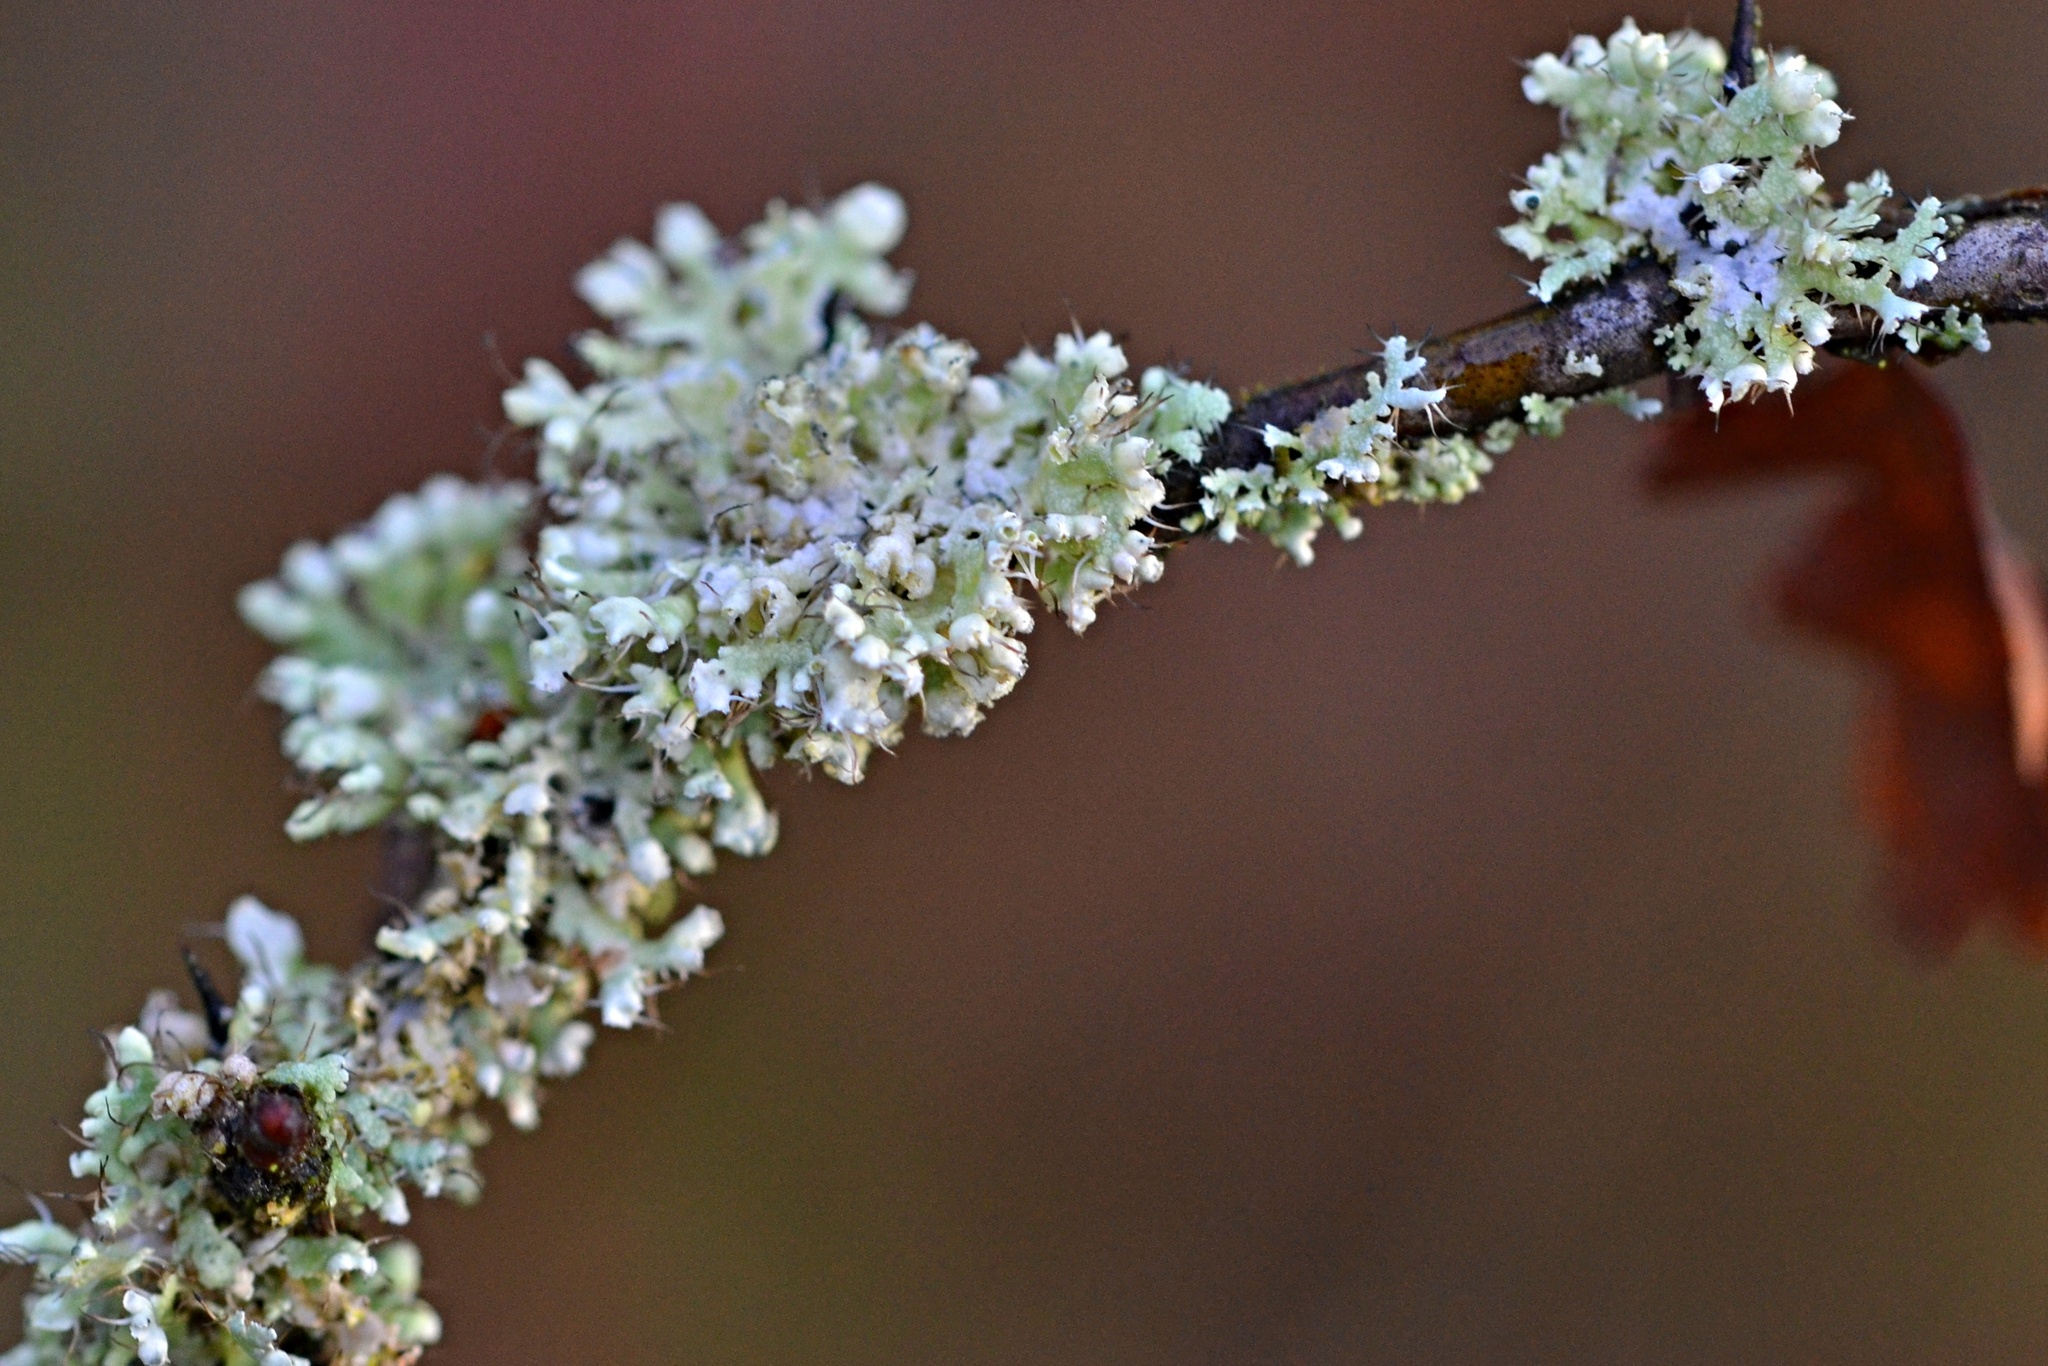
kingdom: Fungi
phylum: Ascomycota
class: Lecanoromycetes
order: Caliciales
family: Physciaceae
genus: Physcia
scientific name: Physcia adscendens
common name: Hooded rosette lichen
